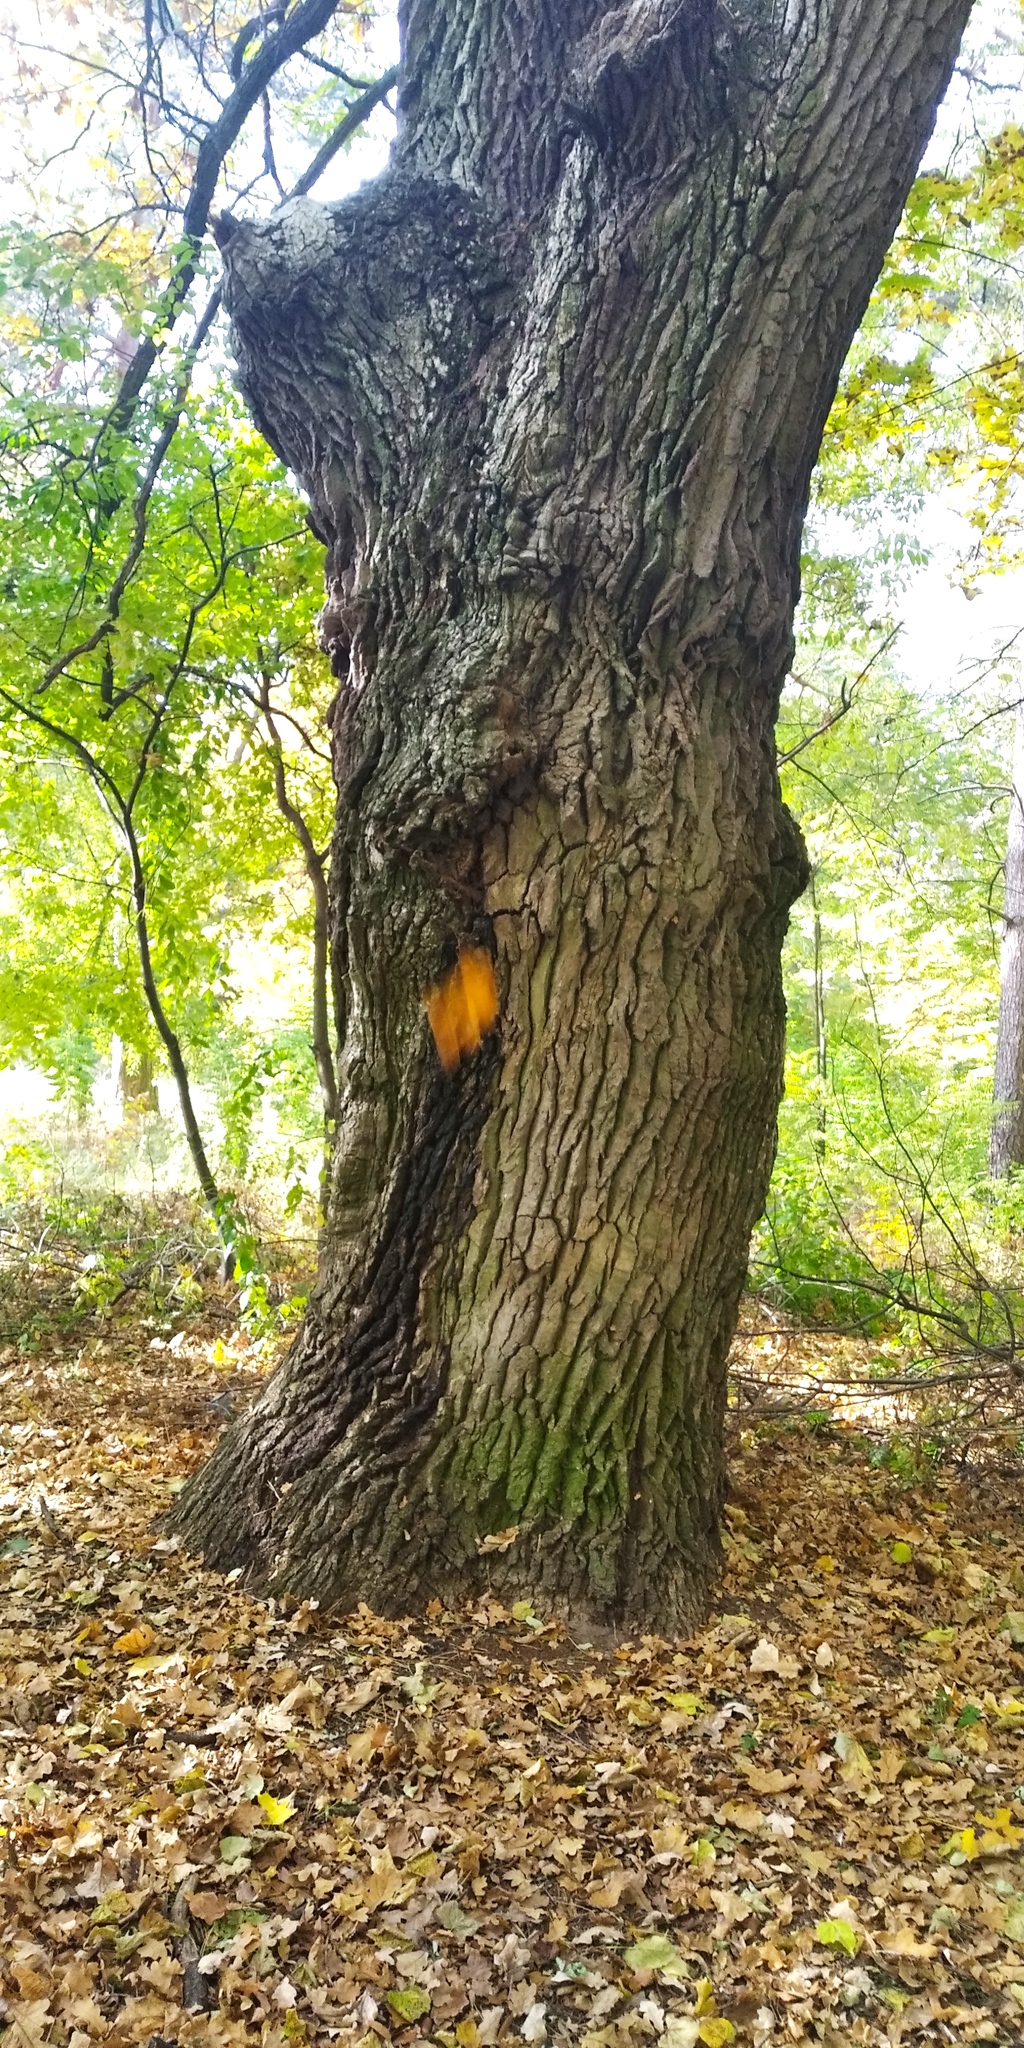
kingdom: Plantae
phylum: Tracheophyta
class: Magnoliopsida
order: Fagales
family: Fagaceae
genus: Quercus
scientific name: Quercus robur
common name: Pedunculate oak
